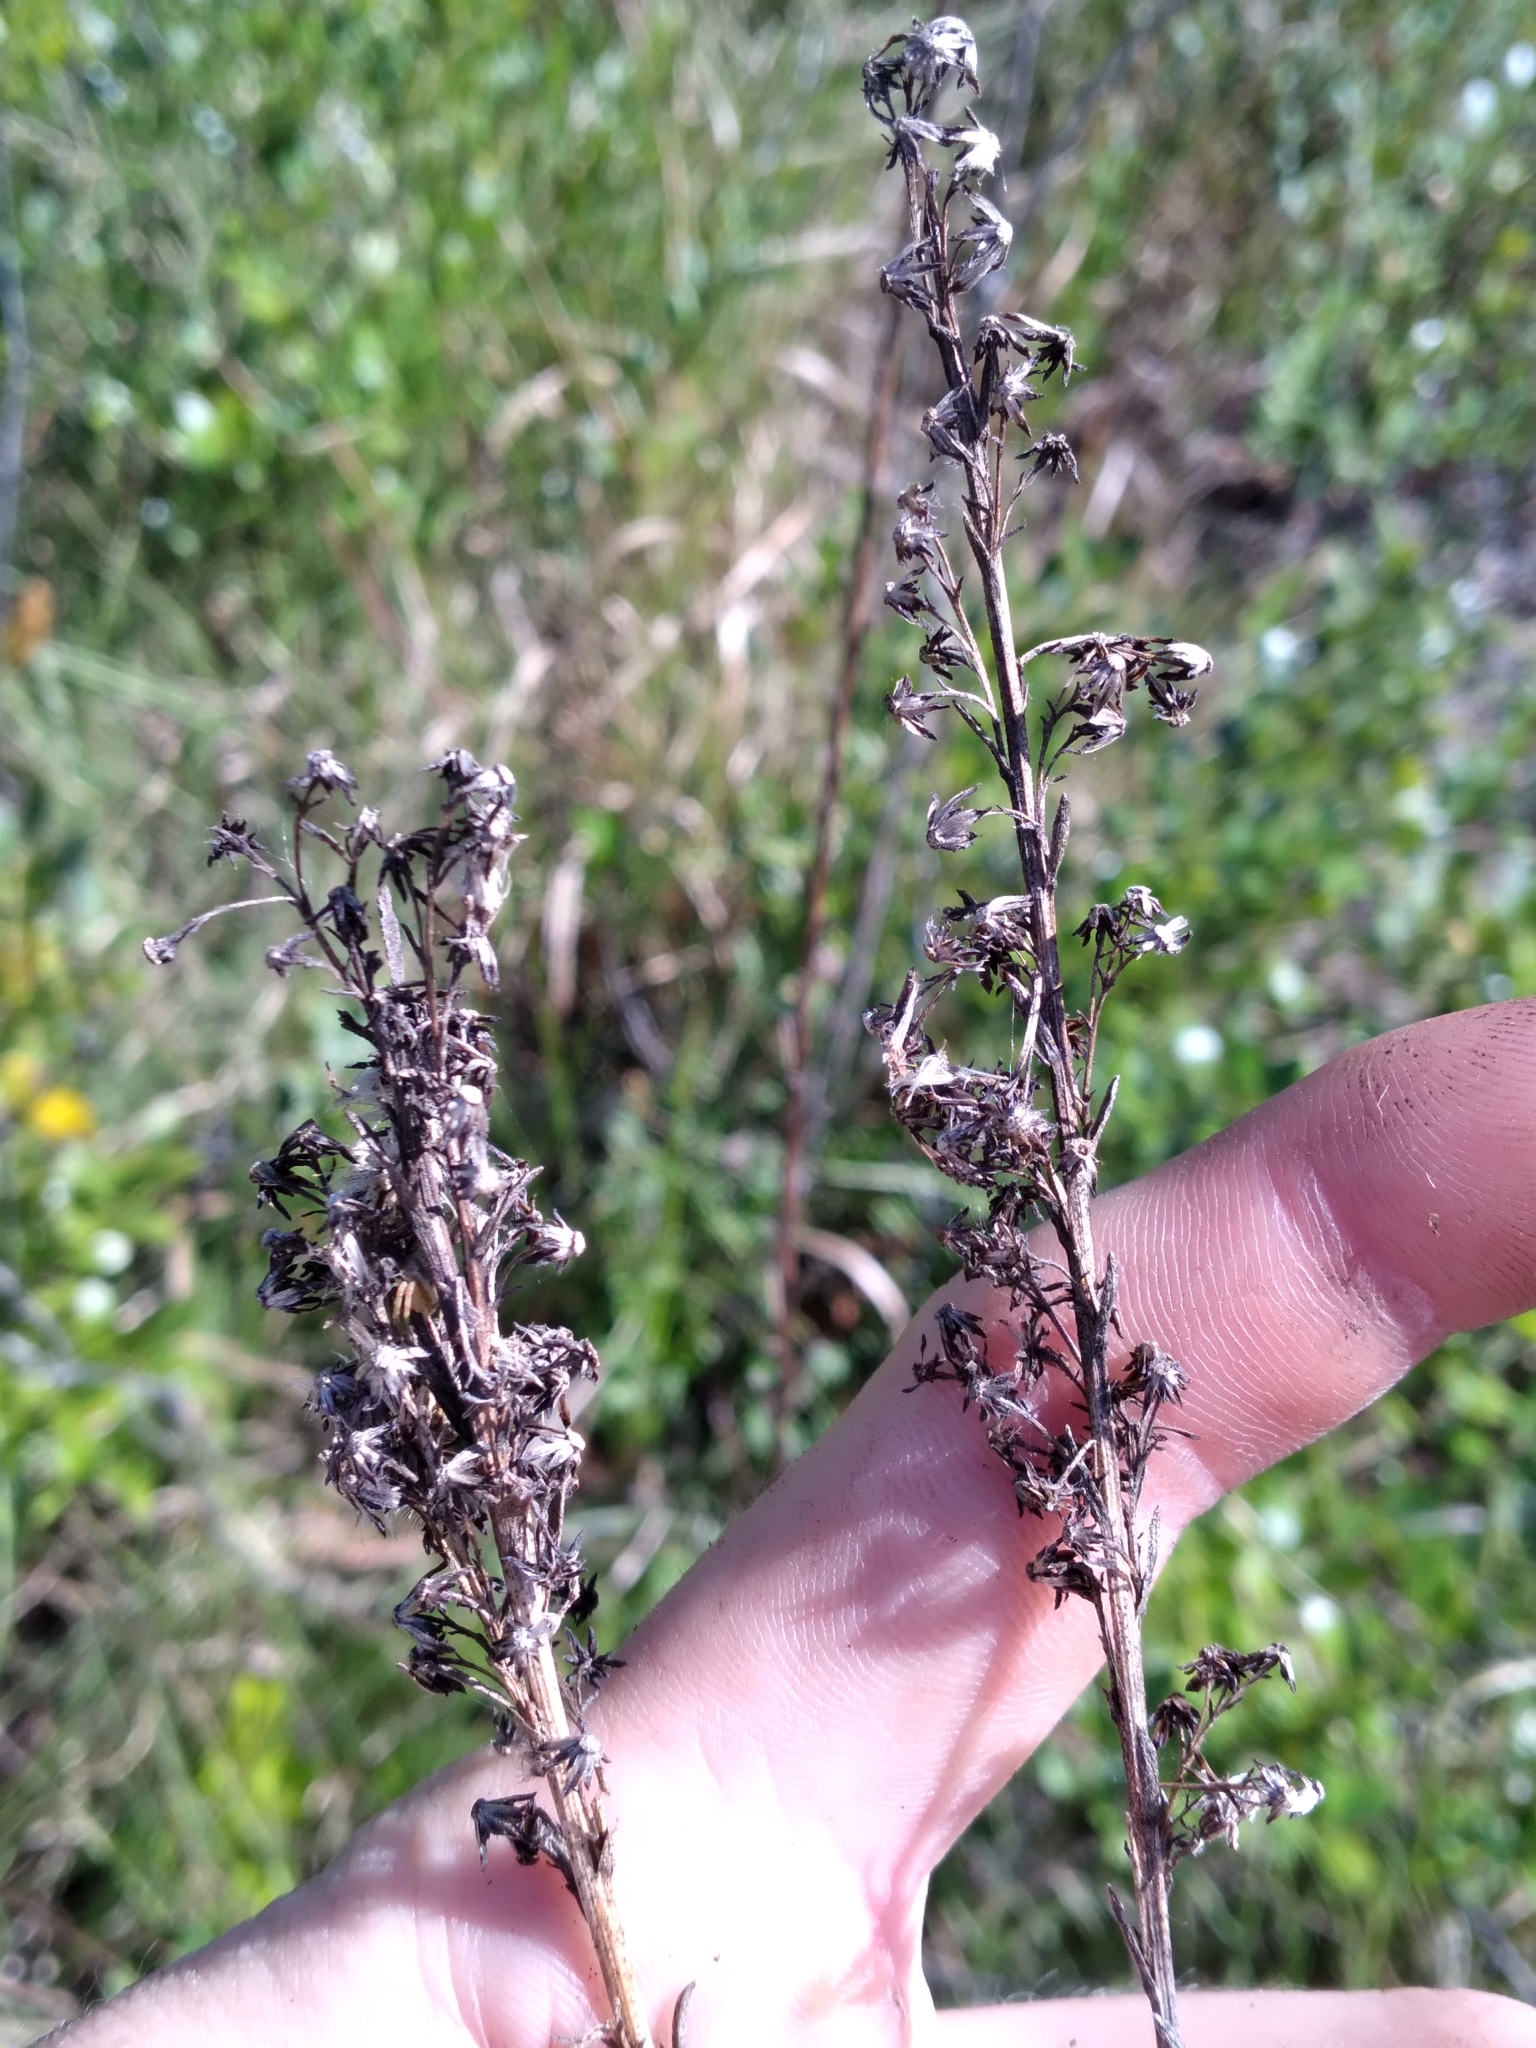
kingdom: Plantae
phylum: Tracheophyta
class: Magnoliopsida
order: Asterales
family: Asteraceae
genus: Solidago
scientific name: Solidago virgata
